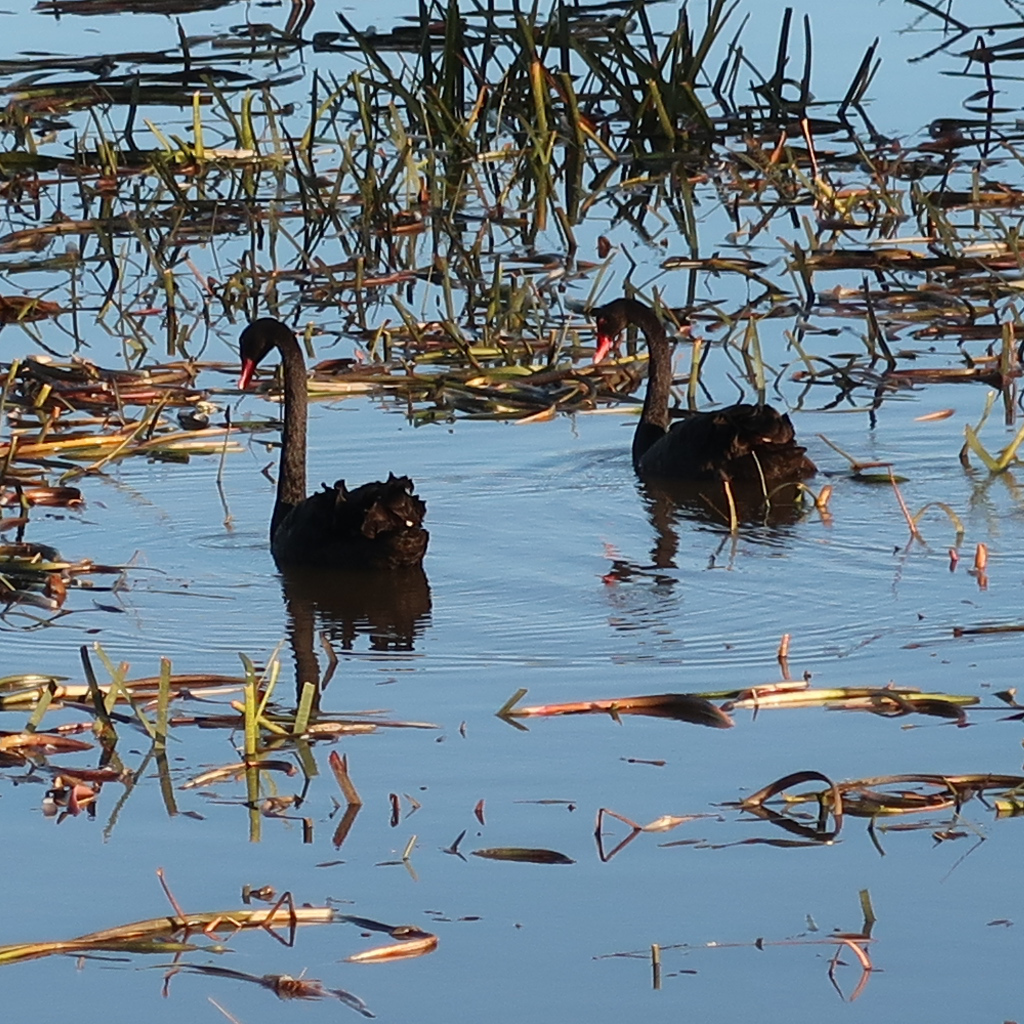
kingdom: Animalia
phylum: Chordata
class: Aves
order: Anseriformes
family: Anatidae
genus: Cygnus
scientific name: Cygnus atratus
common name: Black swan
